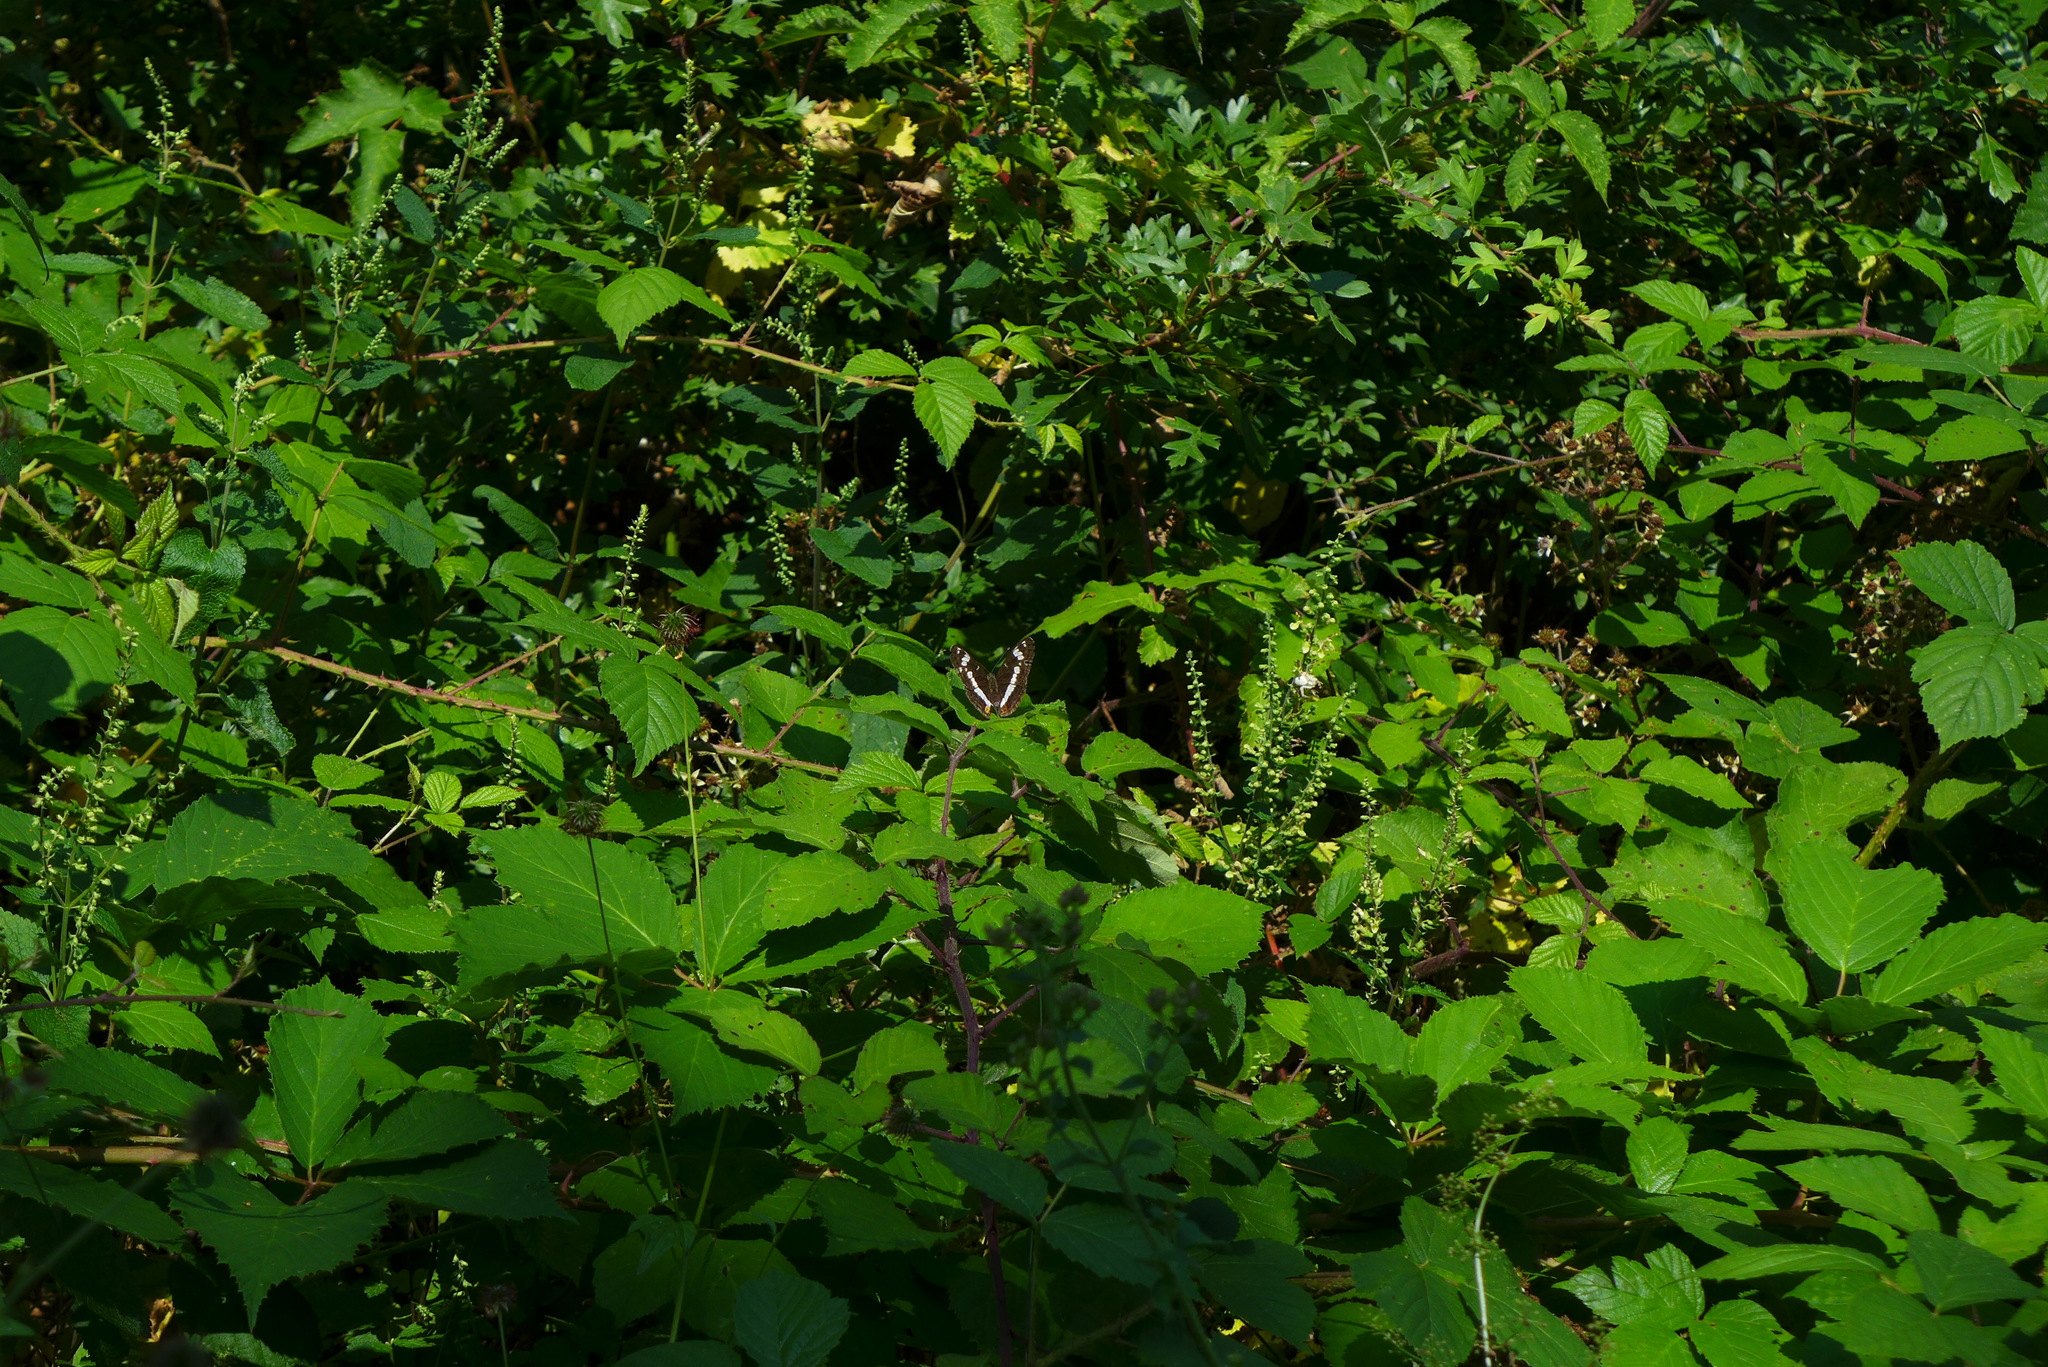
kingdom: Animalia
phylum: Arthropoda
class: Insecta
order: Lepidoptera
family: Nymphalidae
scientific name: Nymphalidae
